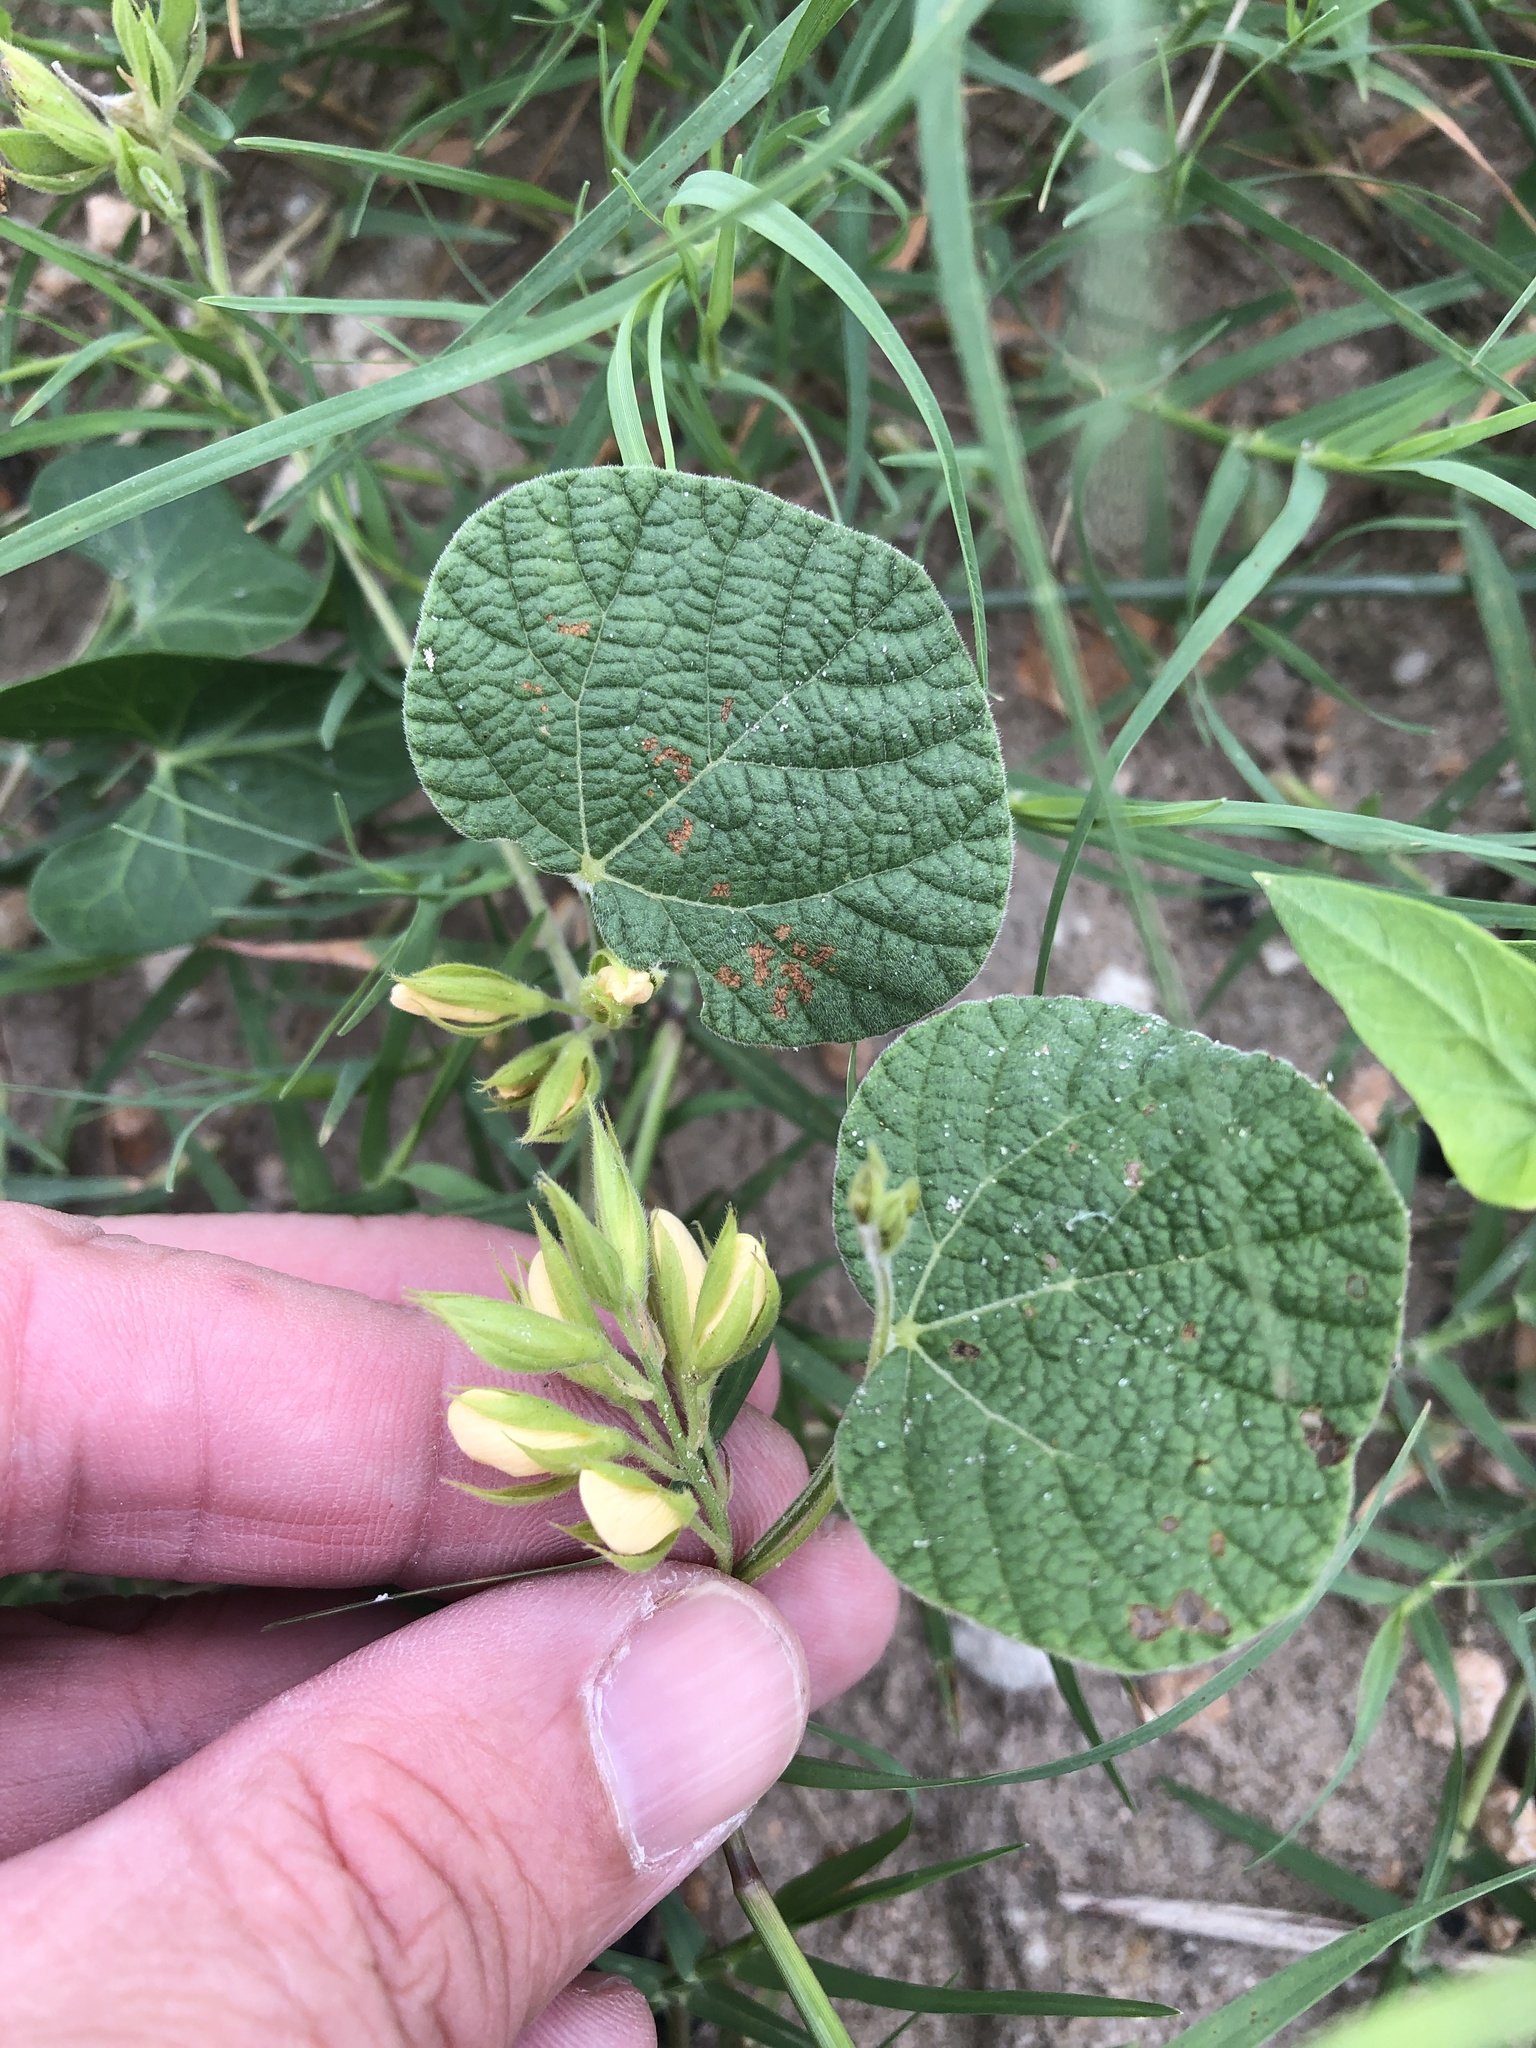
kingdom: Plantae
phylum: Tracheophyta
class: Magnoliopsida
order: Fabales
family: Fabaceae
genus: Rhynchosia
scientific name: Rhynchosia americana
